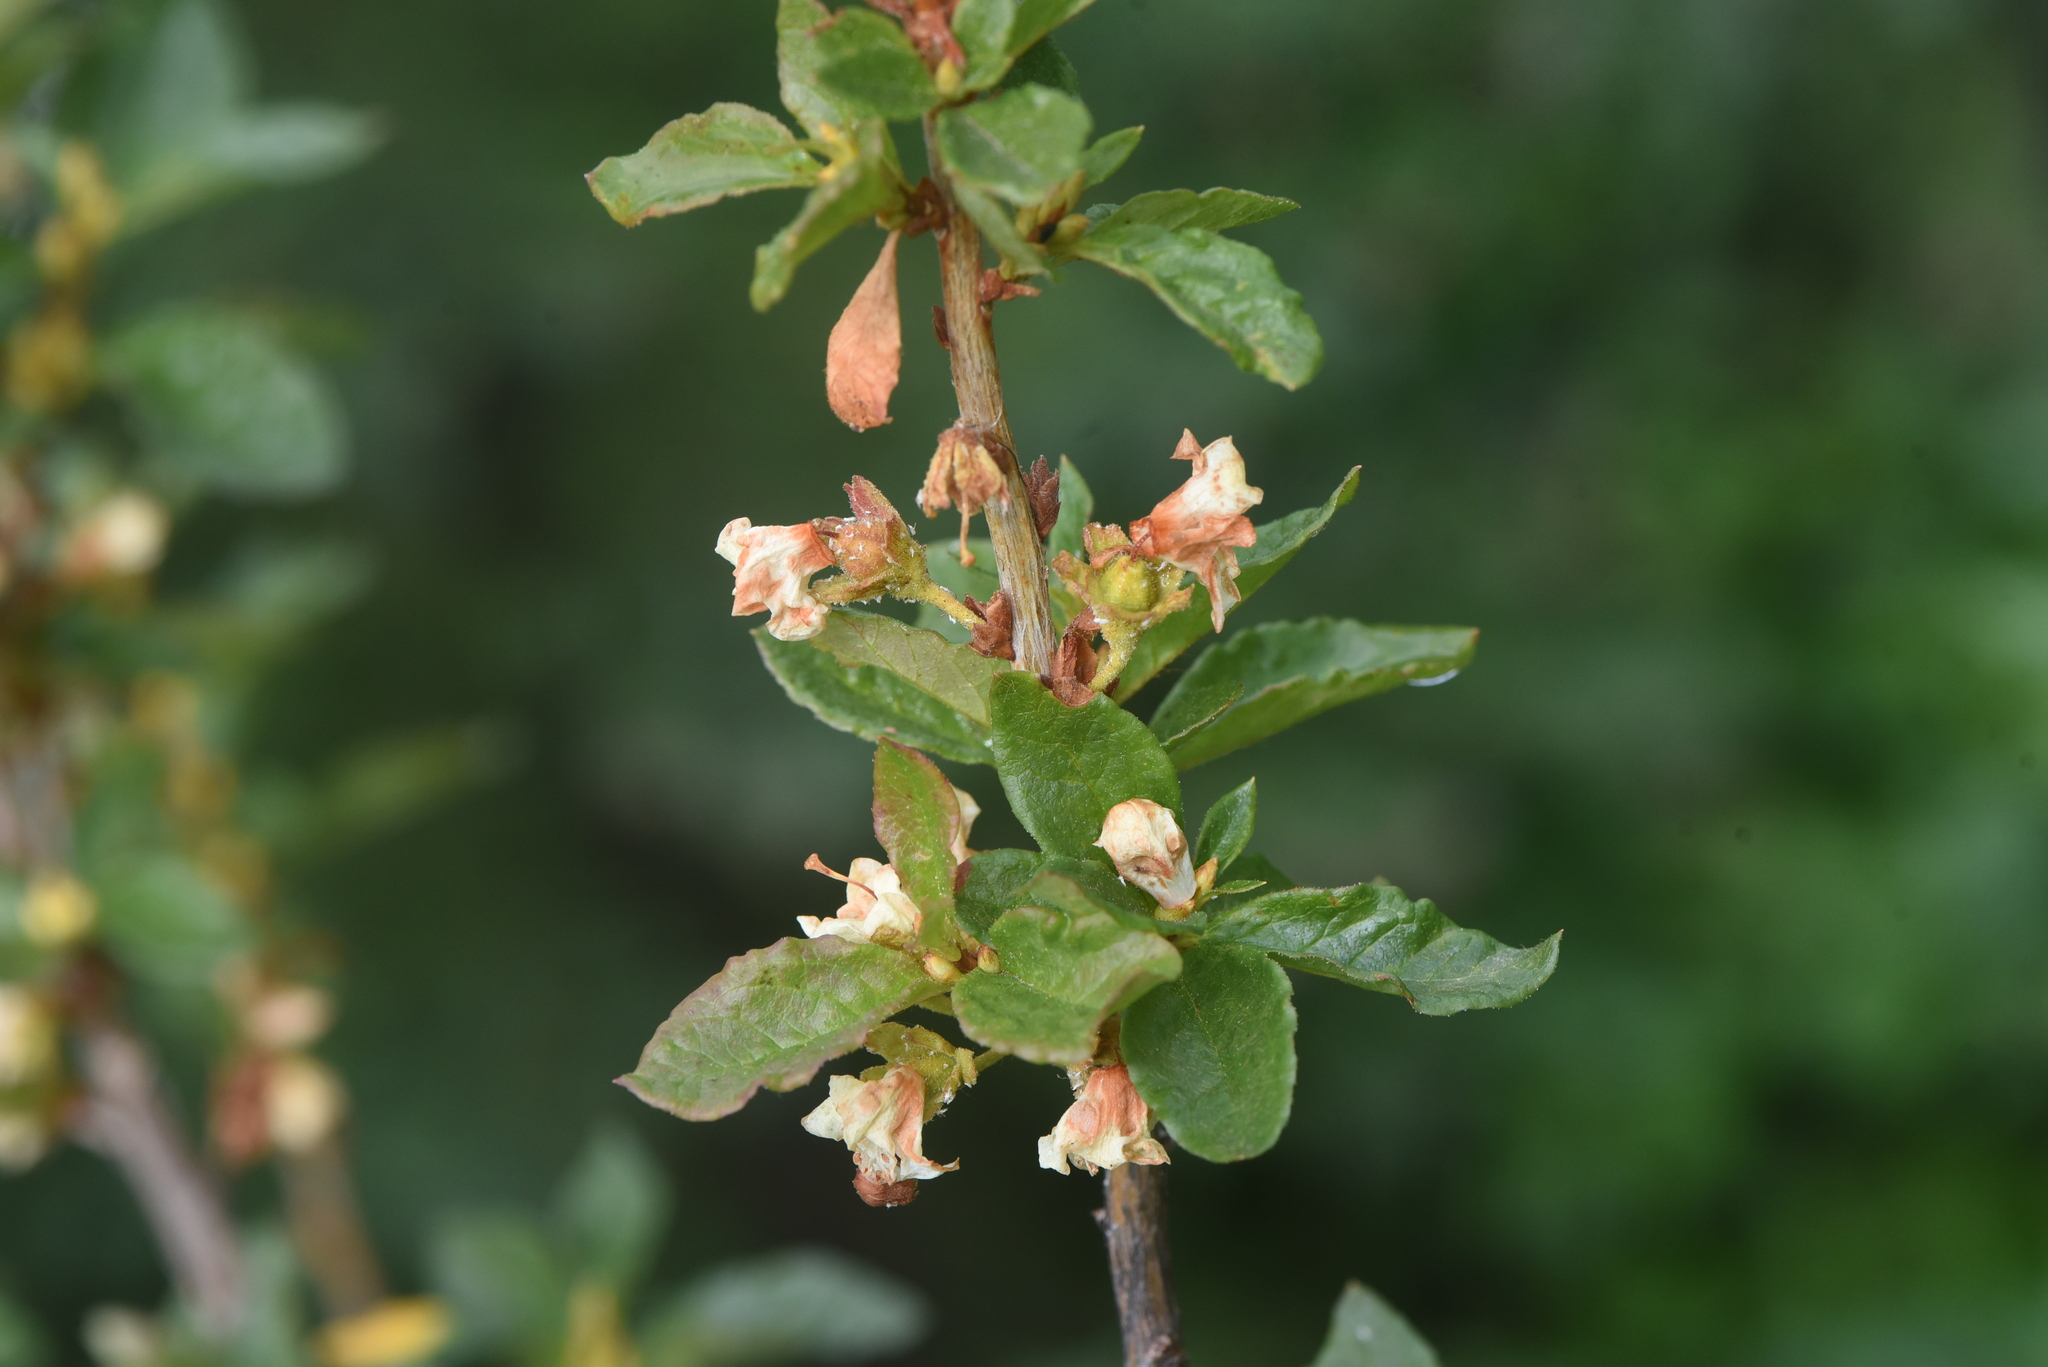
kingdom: Plantae
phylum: Tracheophyta
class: Magnoliopsida
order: Ericales
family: Ericaceae
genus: Rhododendron
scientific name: Rhododendron albiflorum
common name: White rhododendron
